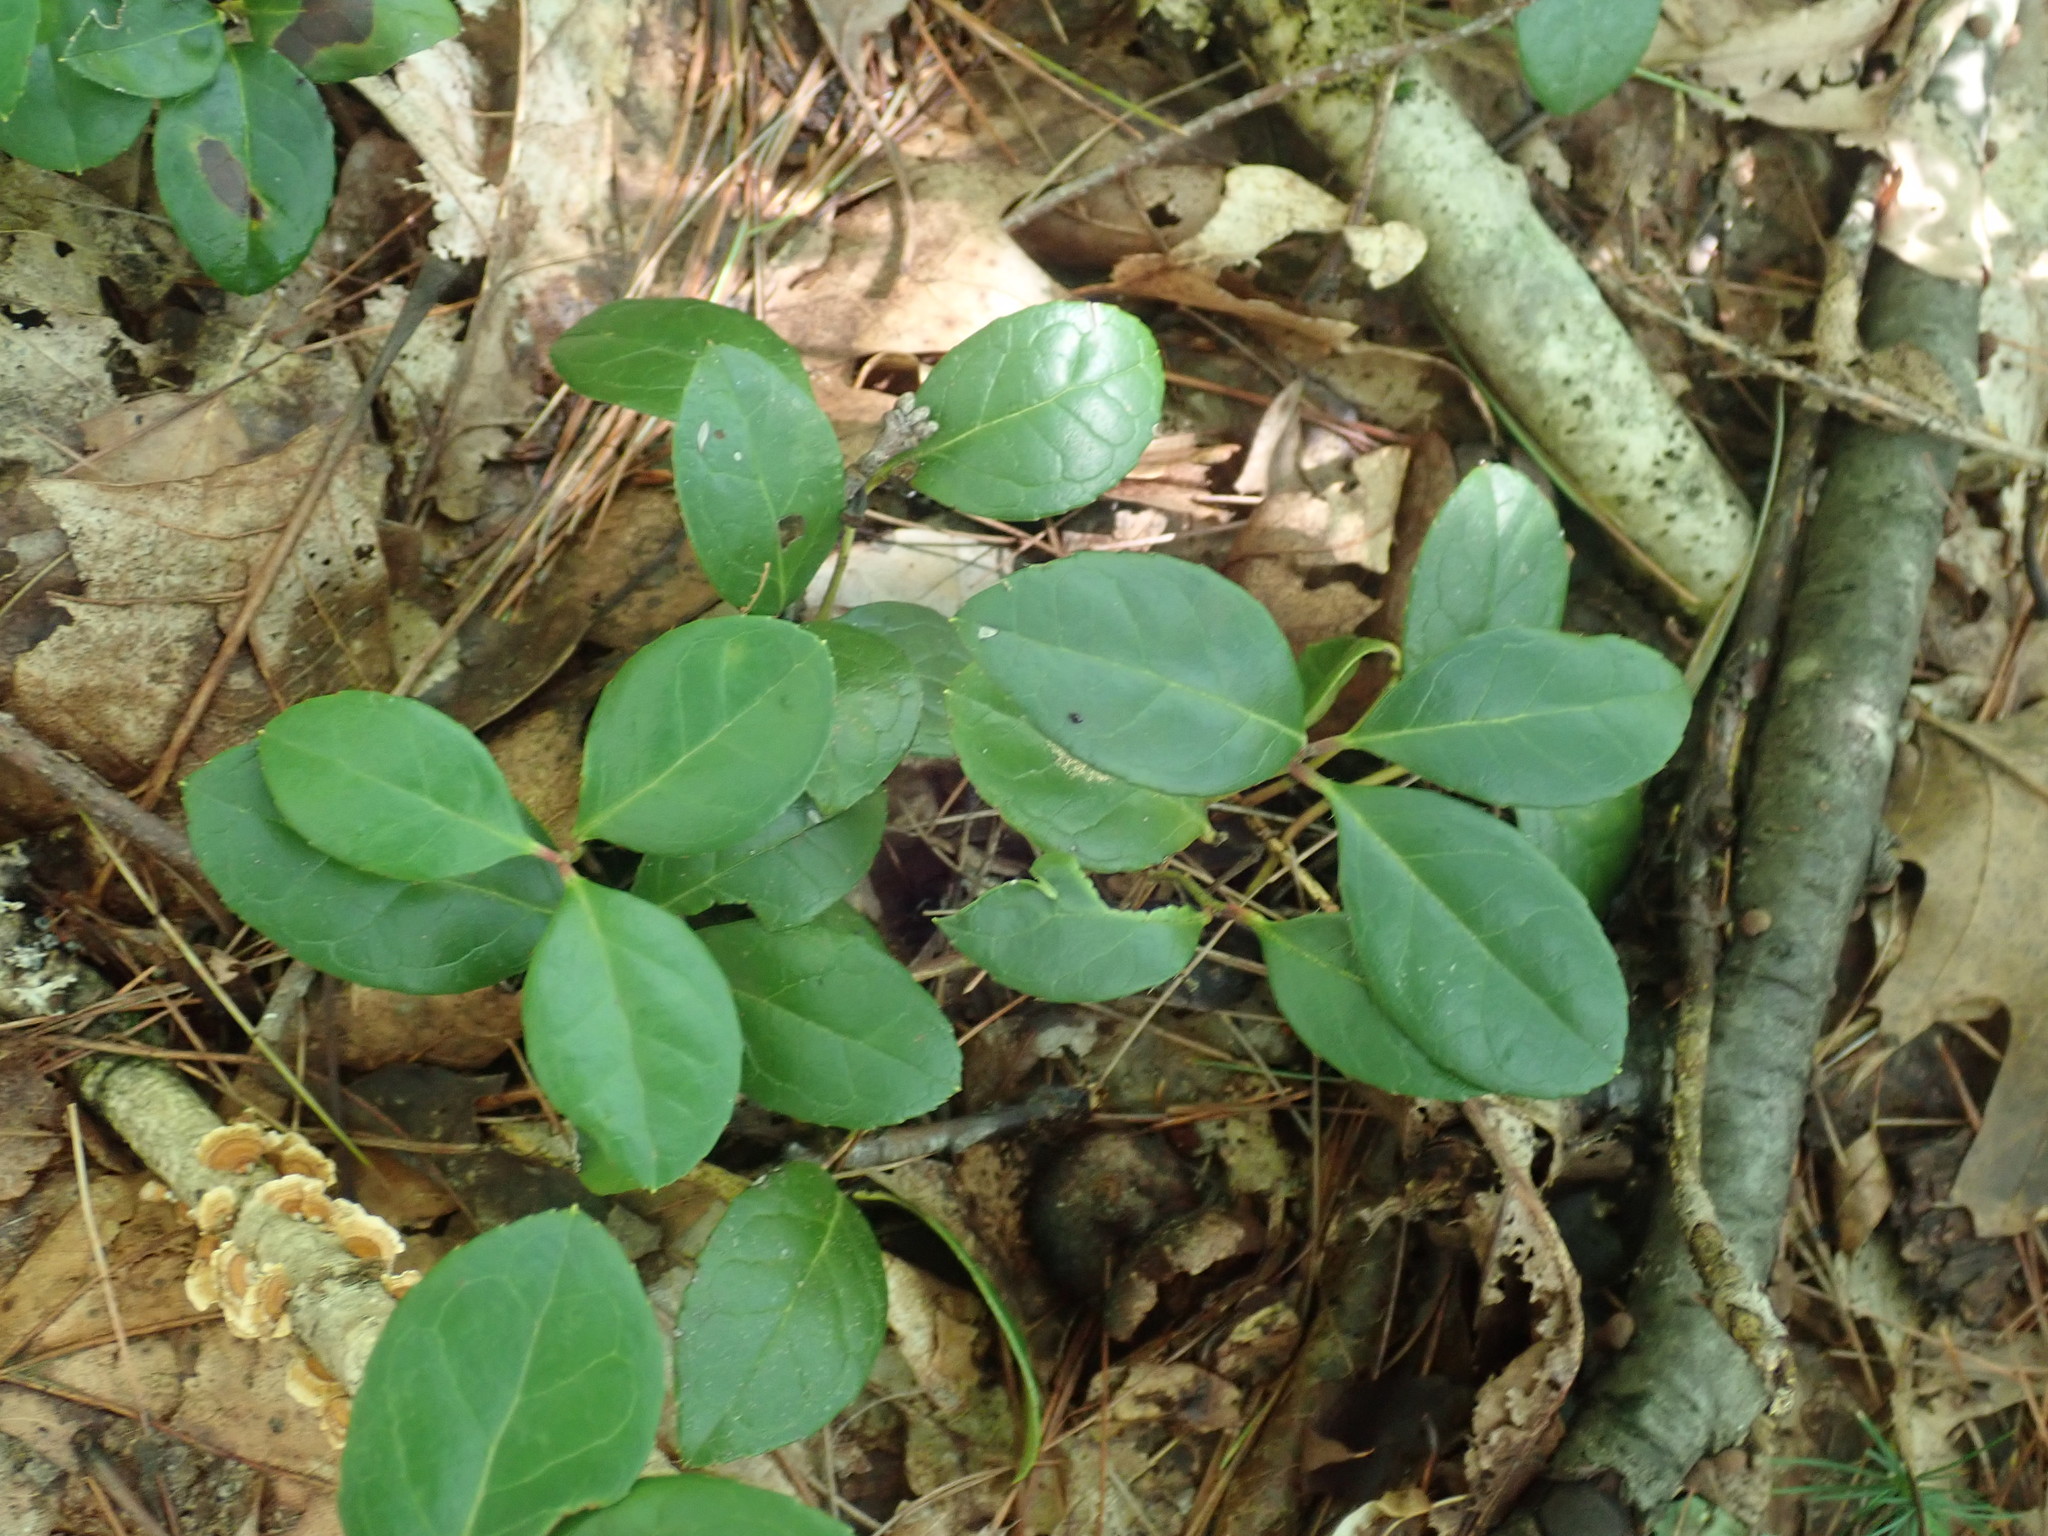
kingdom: Plantae
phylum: Tracheophyta
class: Magnoliopsida
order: Ericales
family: Ericaceae
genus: Gaultheria
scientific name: Gaultheria procumbens
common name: Checkerberry
